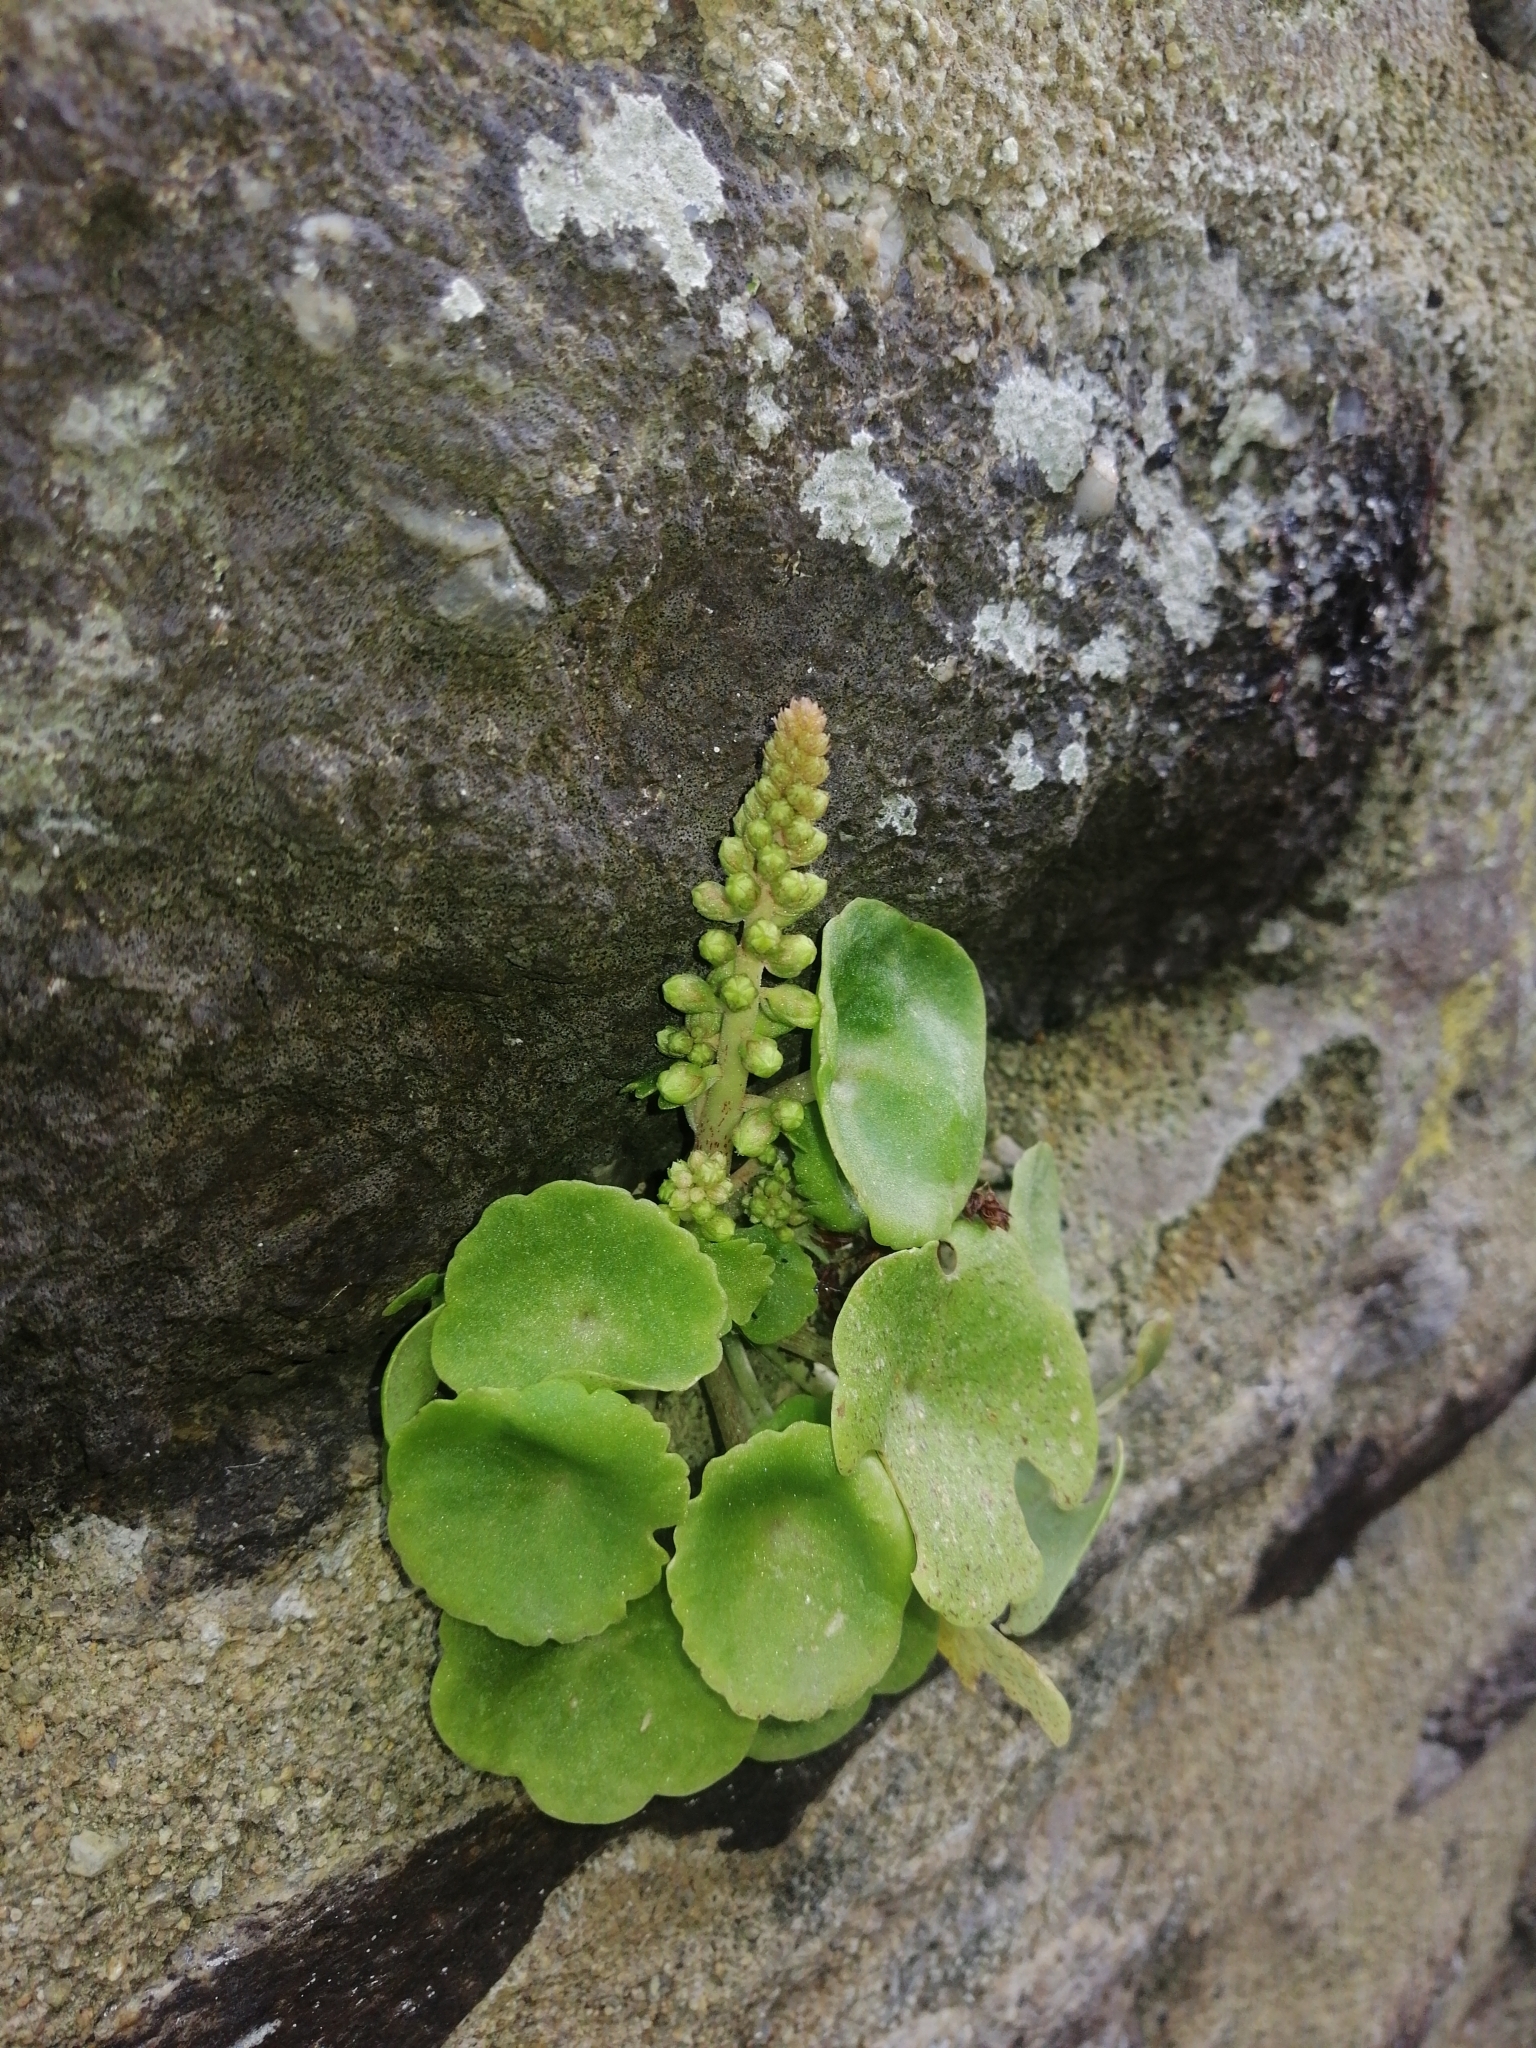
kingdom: Plantae
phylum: Tracheophyta
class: Magnoliopsida
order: Saxifragales
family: Crassulaceae
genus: Umbilicus
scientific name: Umbilicus rupestris
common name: Navelwort
